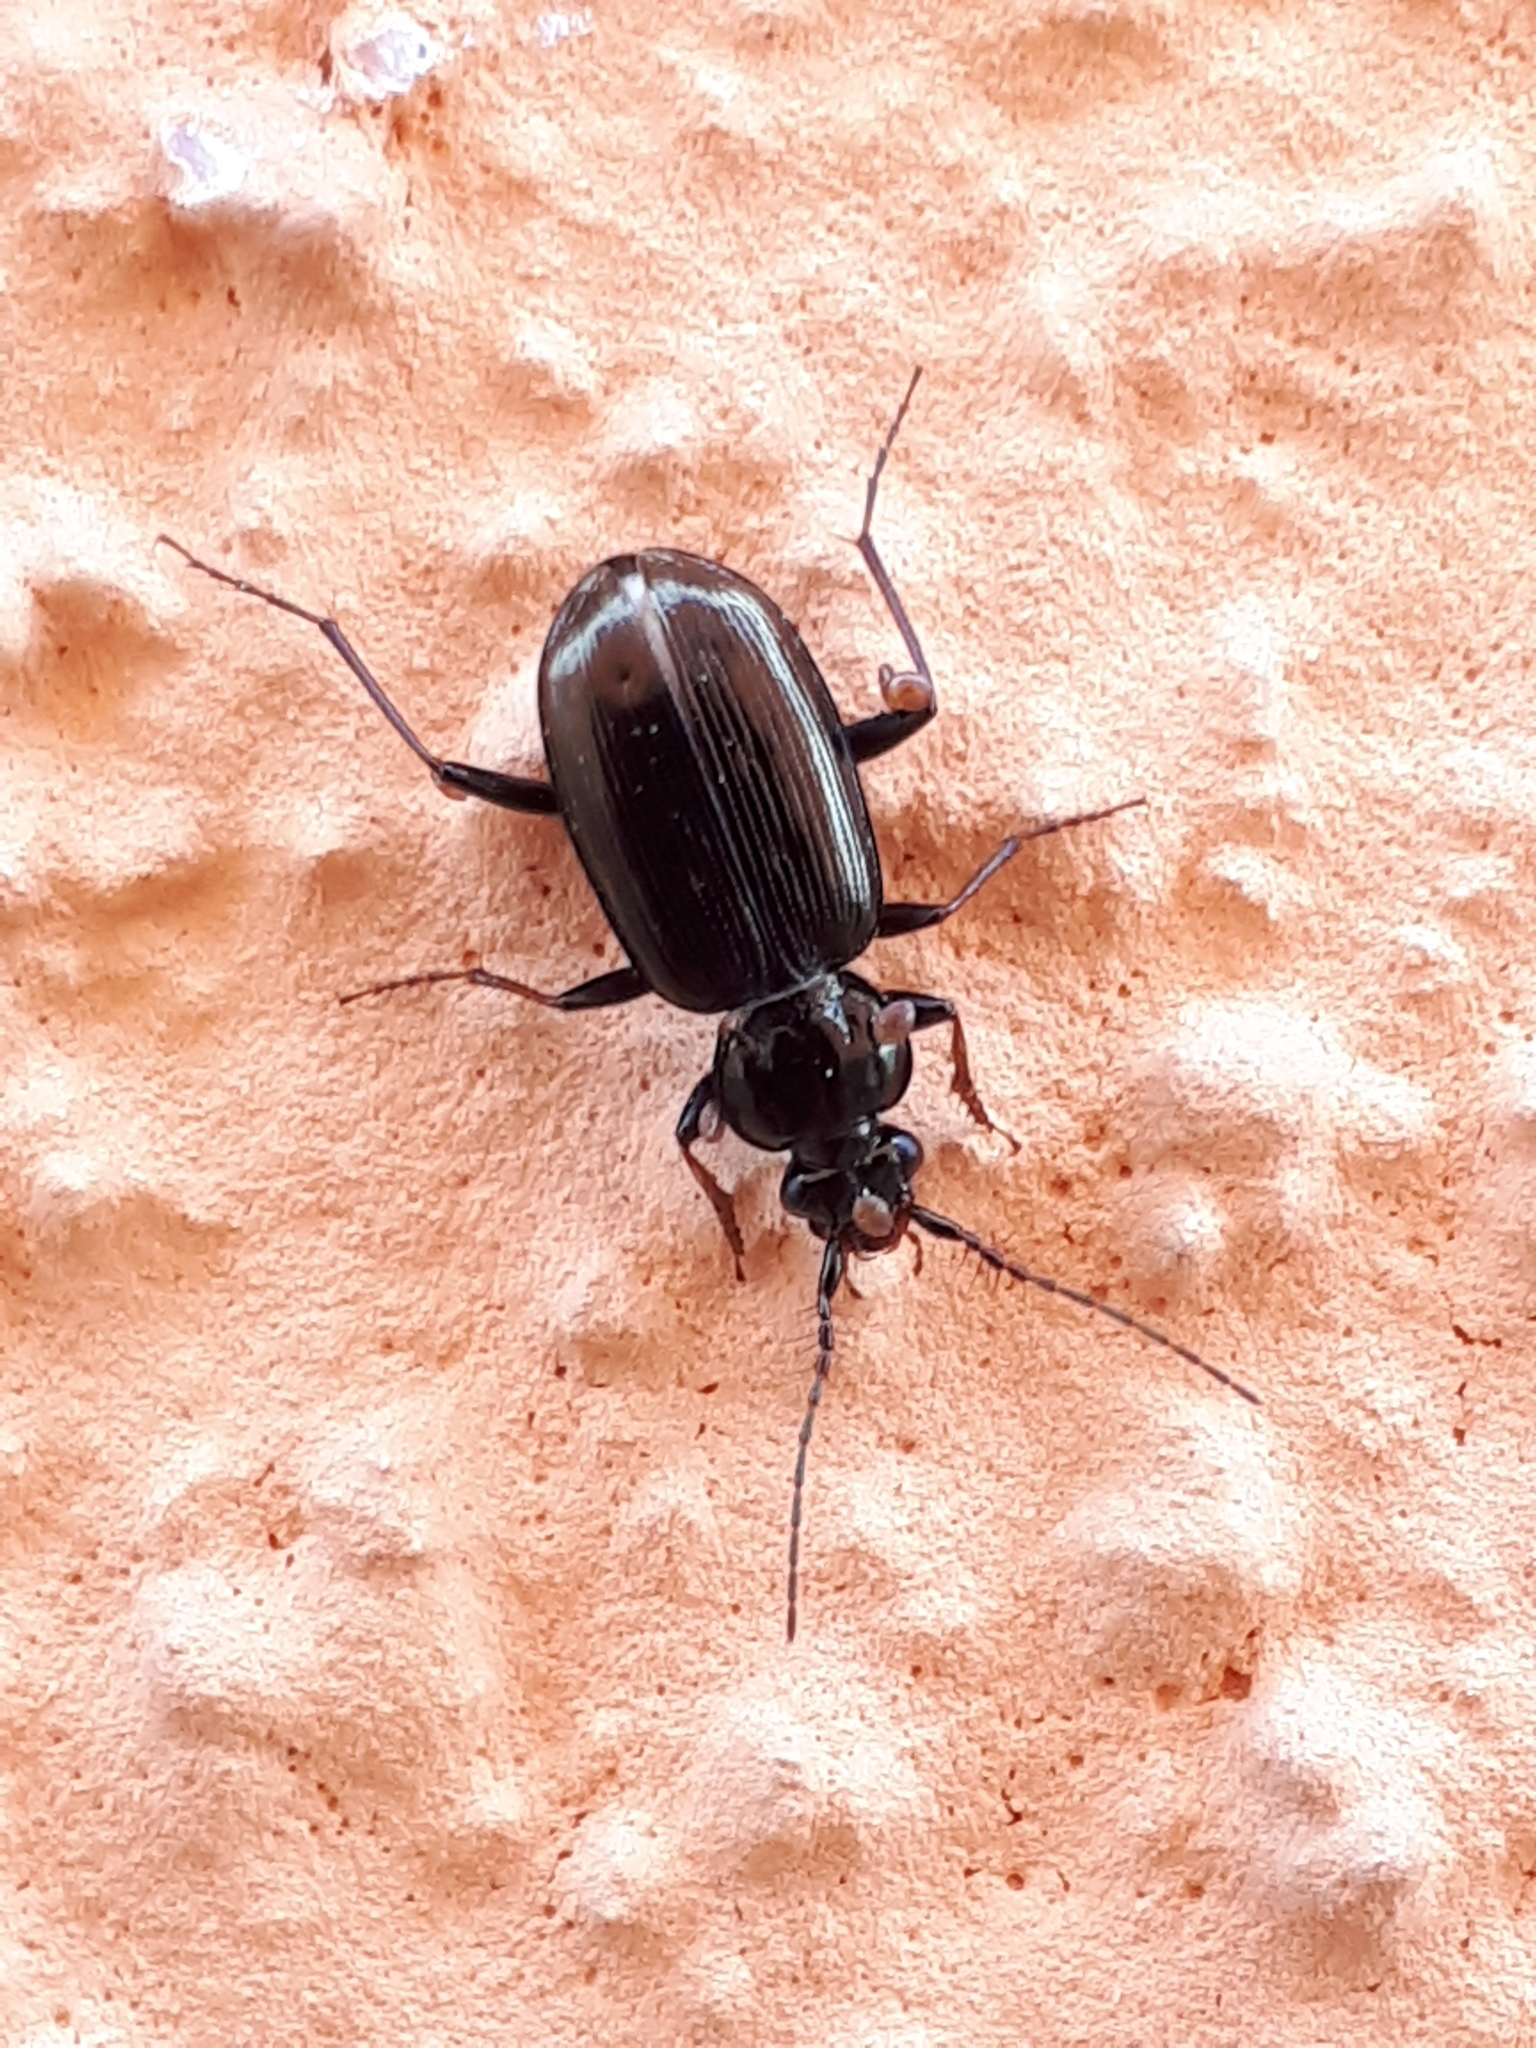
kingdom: Animalia
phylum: Arthropoda
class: Insecta
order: Coleoptera
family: Carabidae
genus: Loricera
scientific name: Loricera pilicornis
